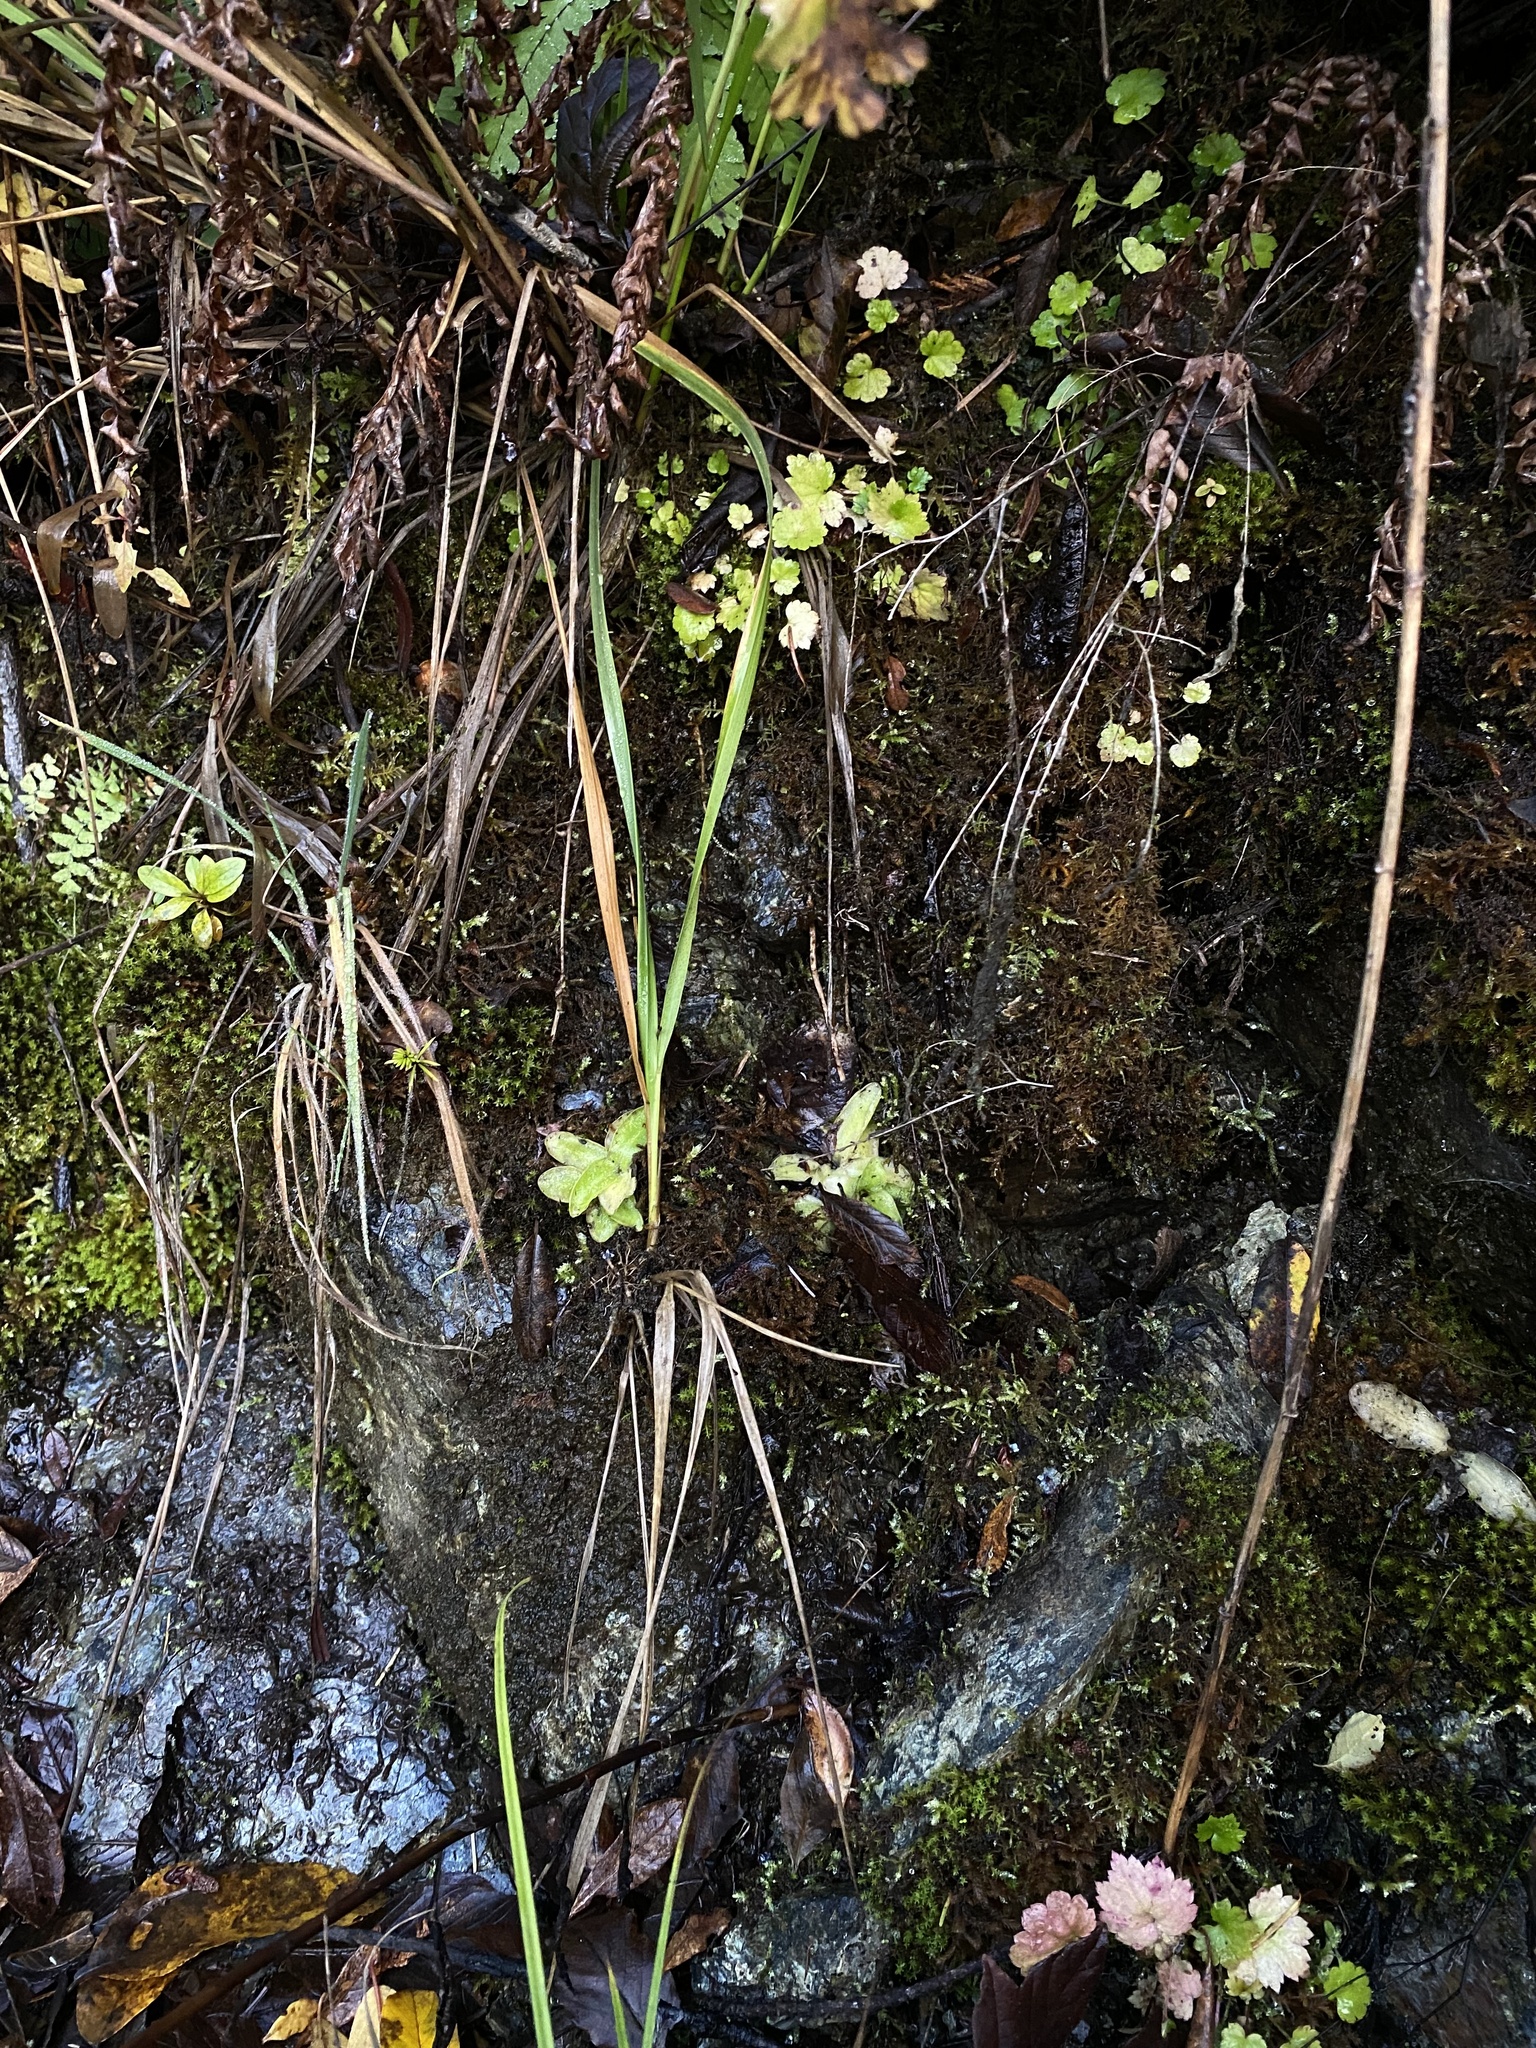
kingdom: Plantae
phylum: Tracheophyta
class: Magnoliopsida
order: Lamiales
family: Lentibulariaceae
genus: Pinguicula
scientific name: Pinguicula macroceras
